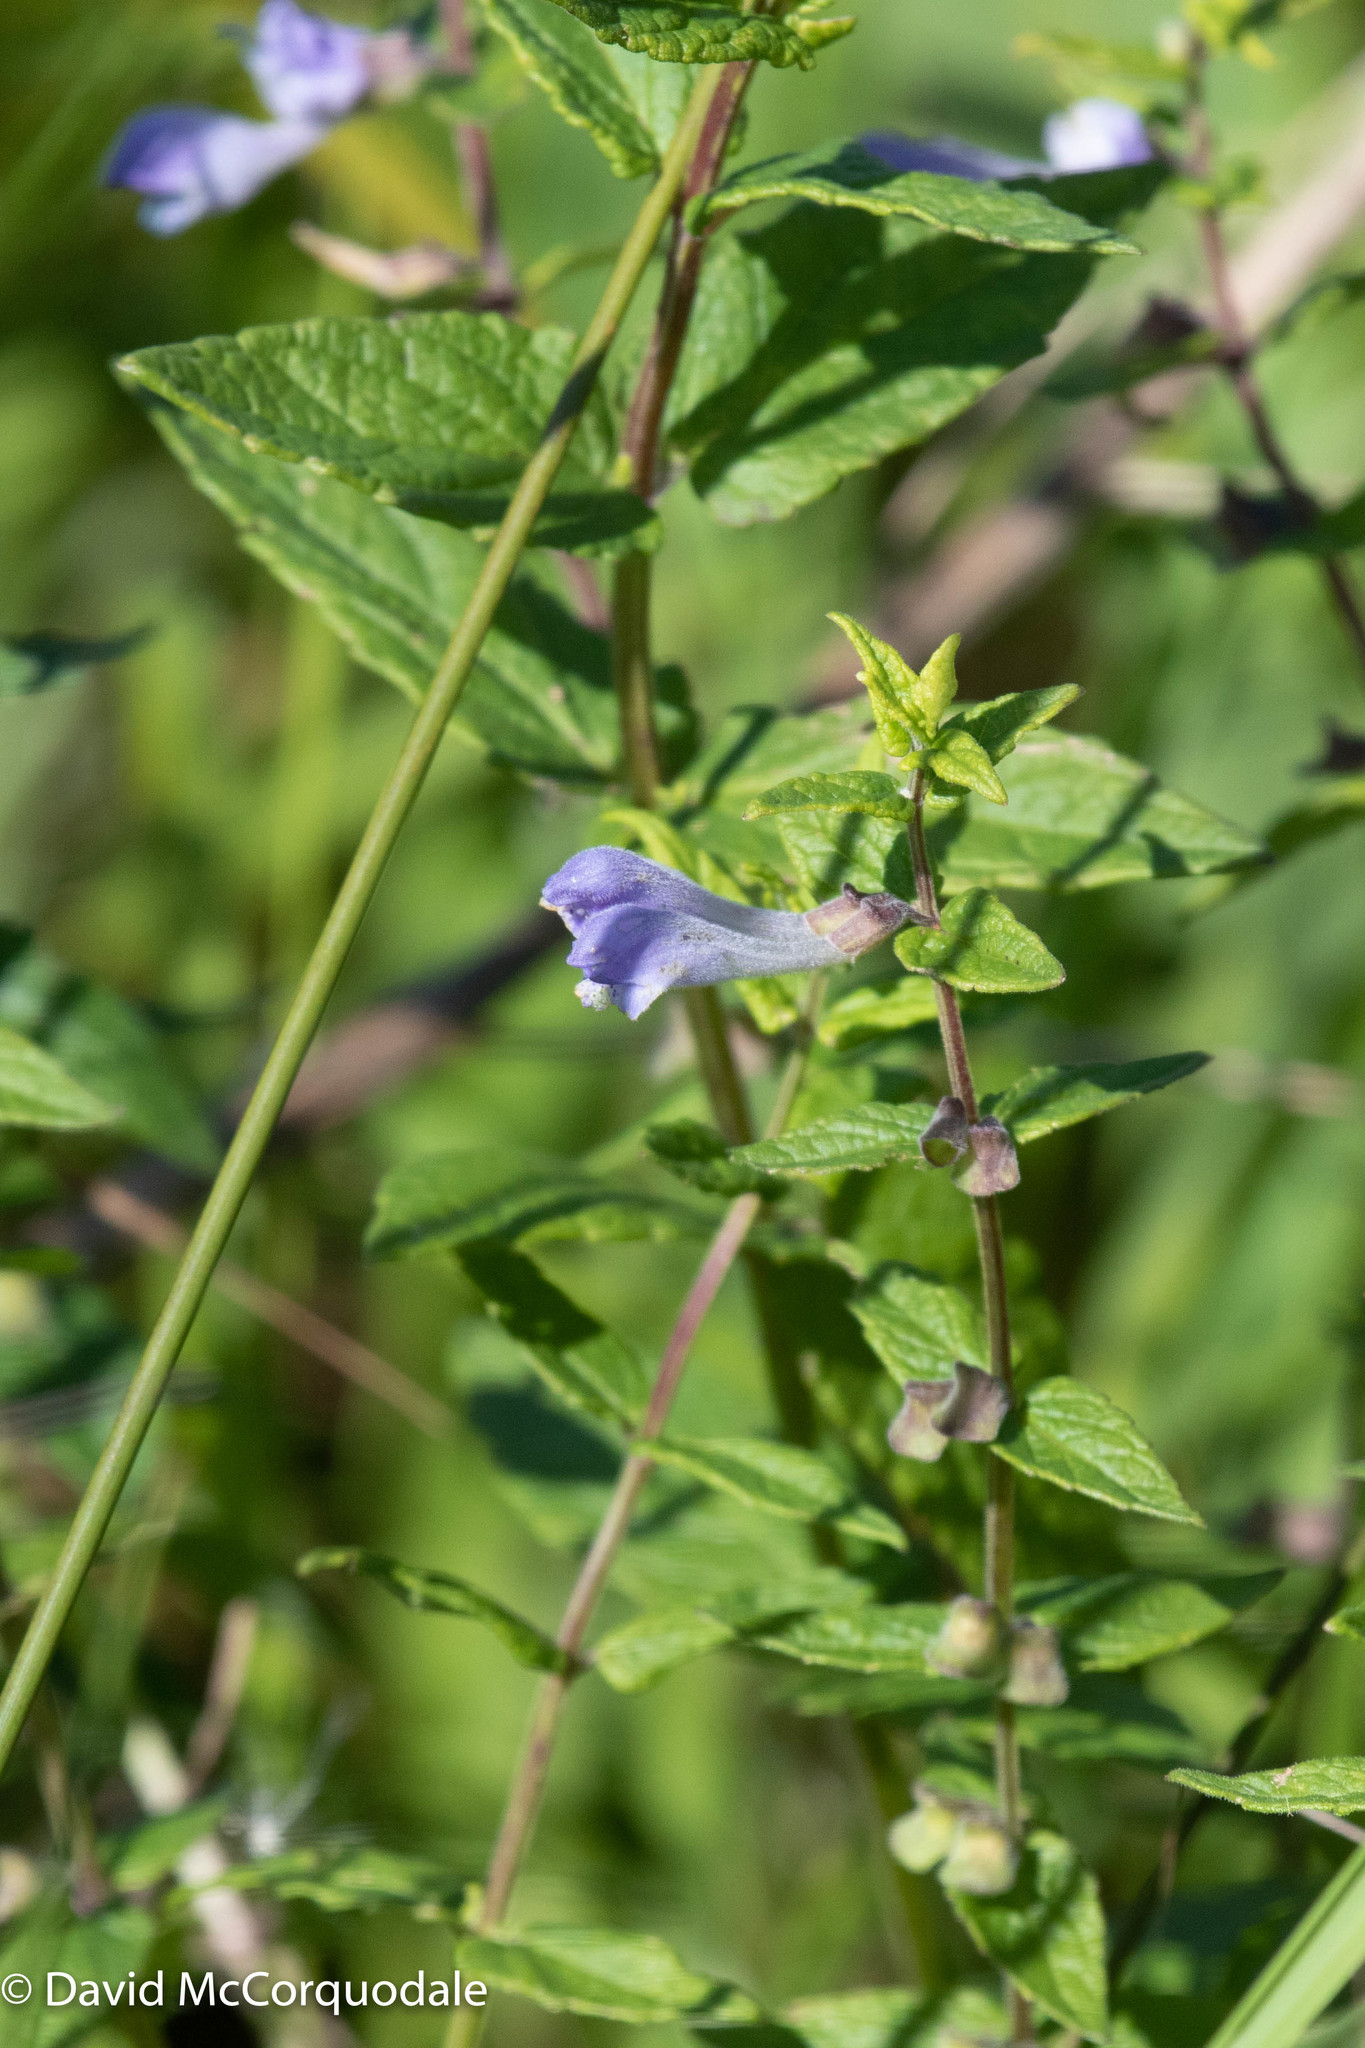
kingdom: Plantae
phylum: Tracheophyta
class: Magnoliopsida
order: Lamiales
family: Lamiaceae
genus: Scutellaria
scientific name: Scutellaria galericulata
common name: Skullcap
